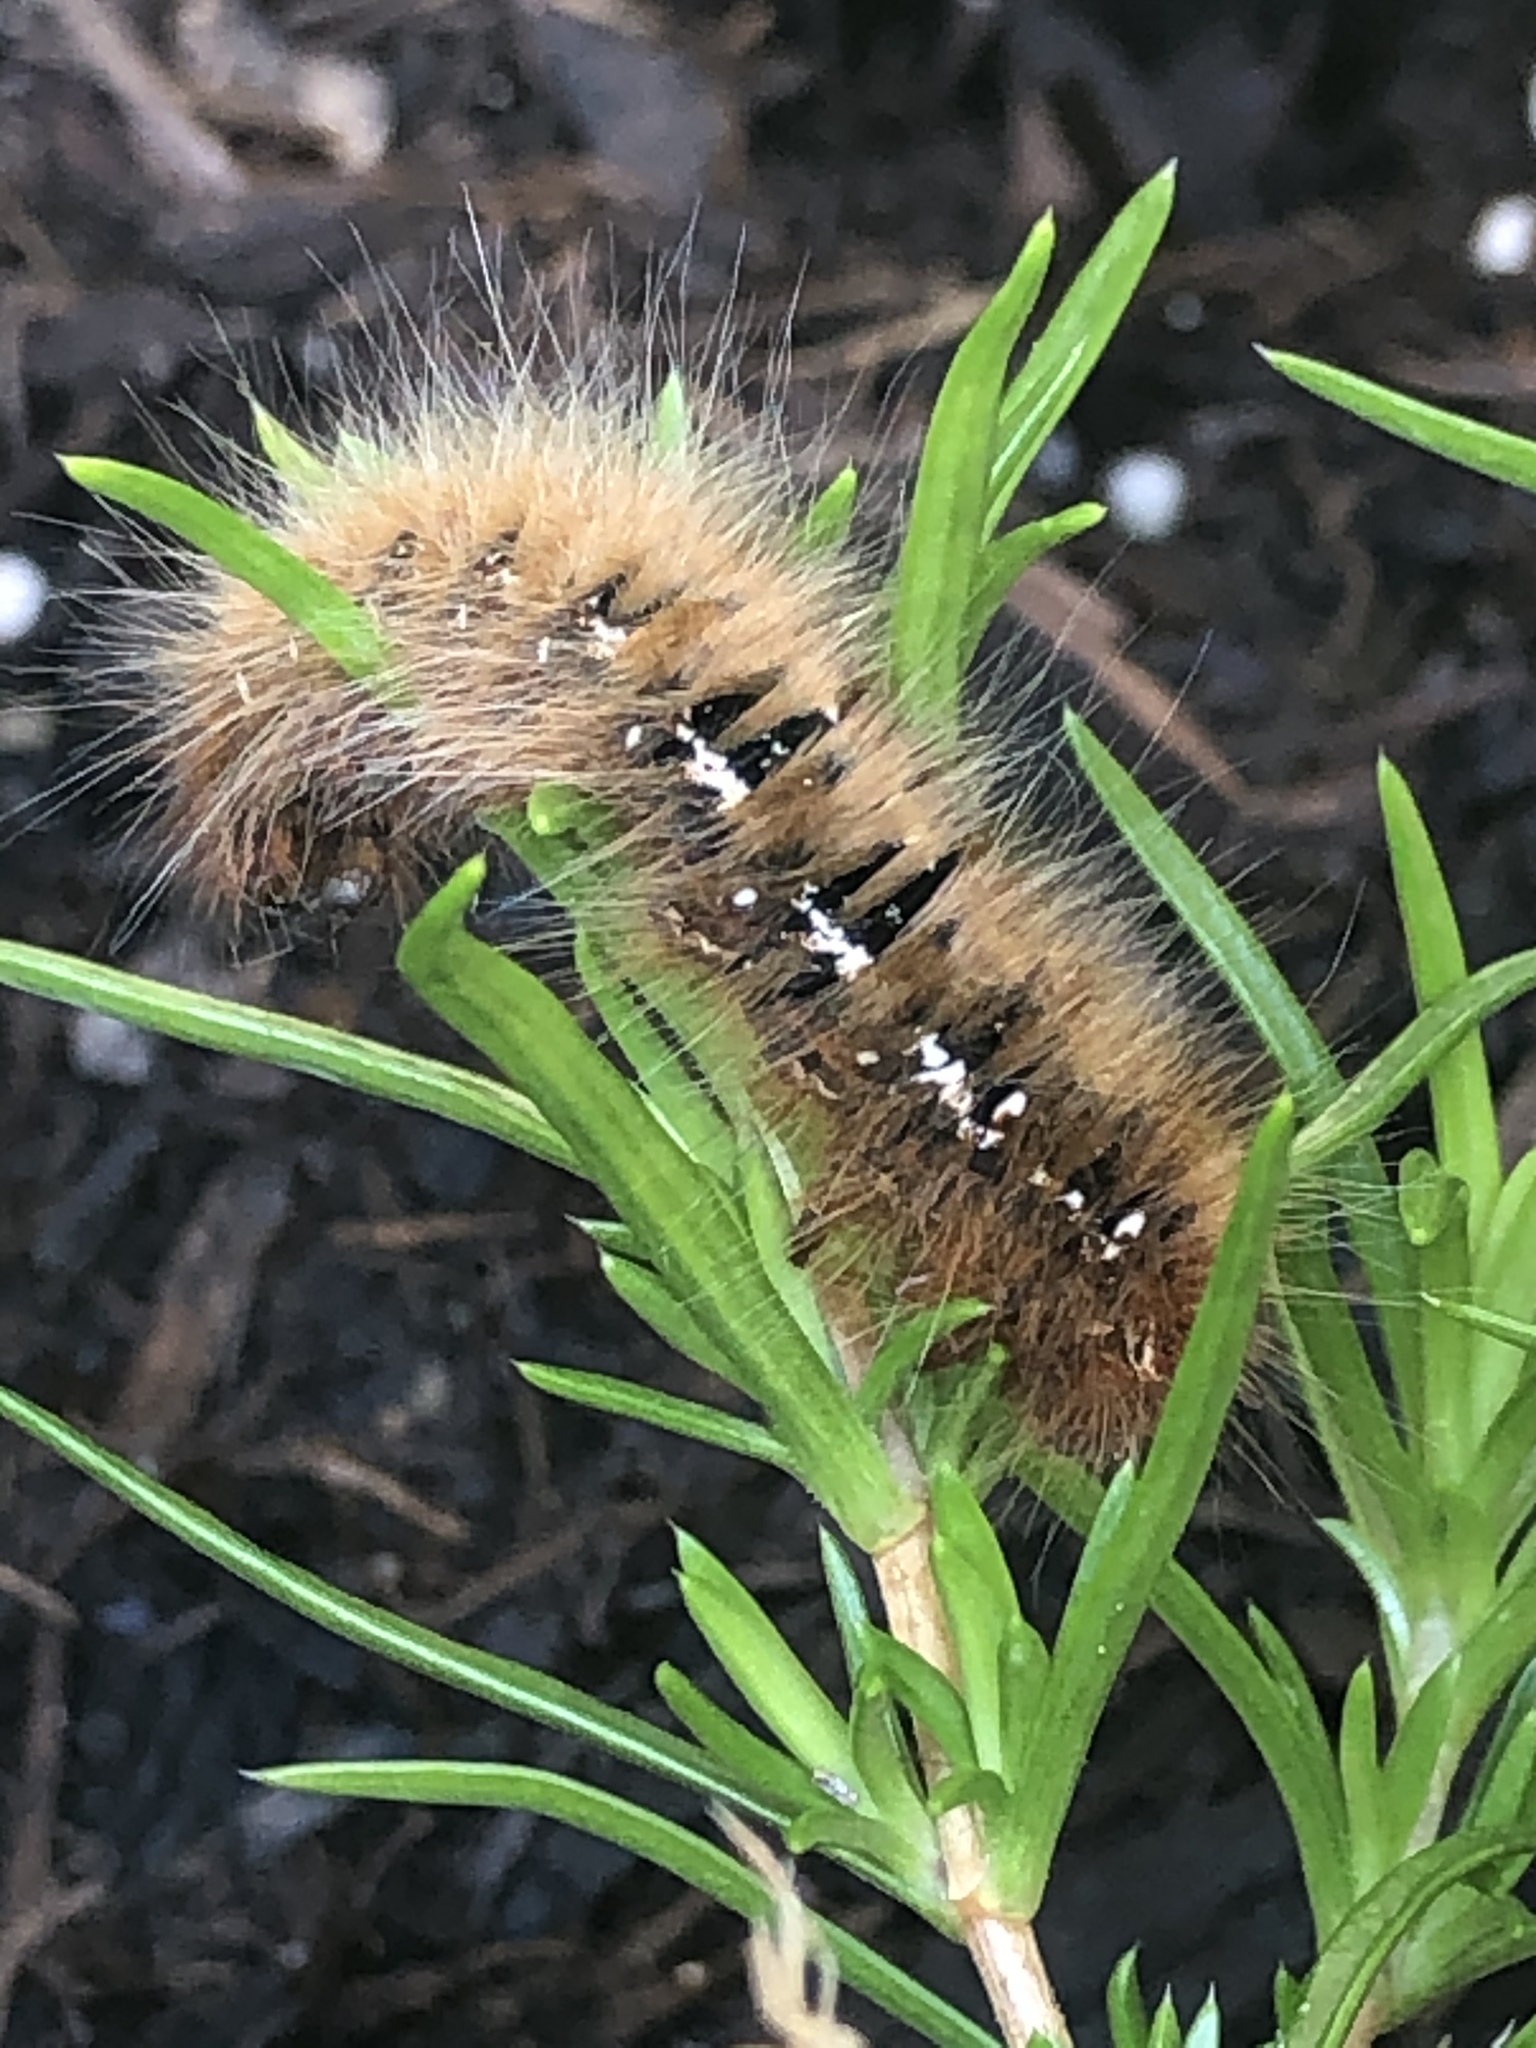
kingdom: Animalia
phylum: Arthropoda
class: Insecta
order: Lepidoptera
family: Lasiocampidae
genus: Lasiocampa
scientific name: Lasiocampa quercus
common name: Oak eggar
